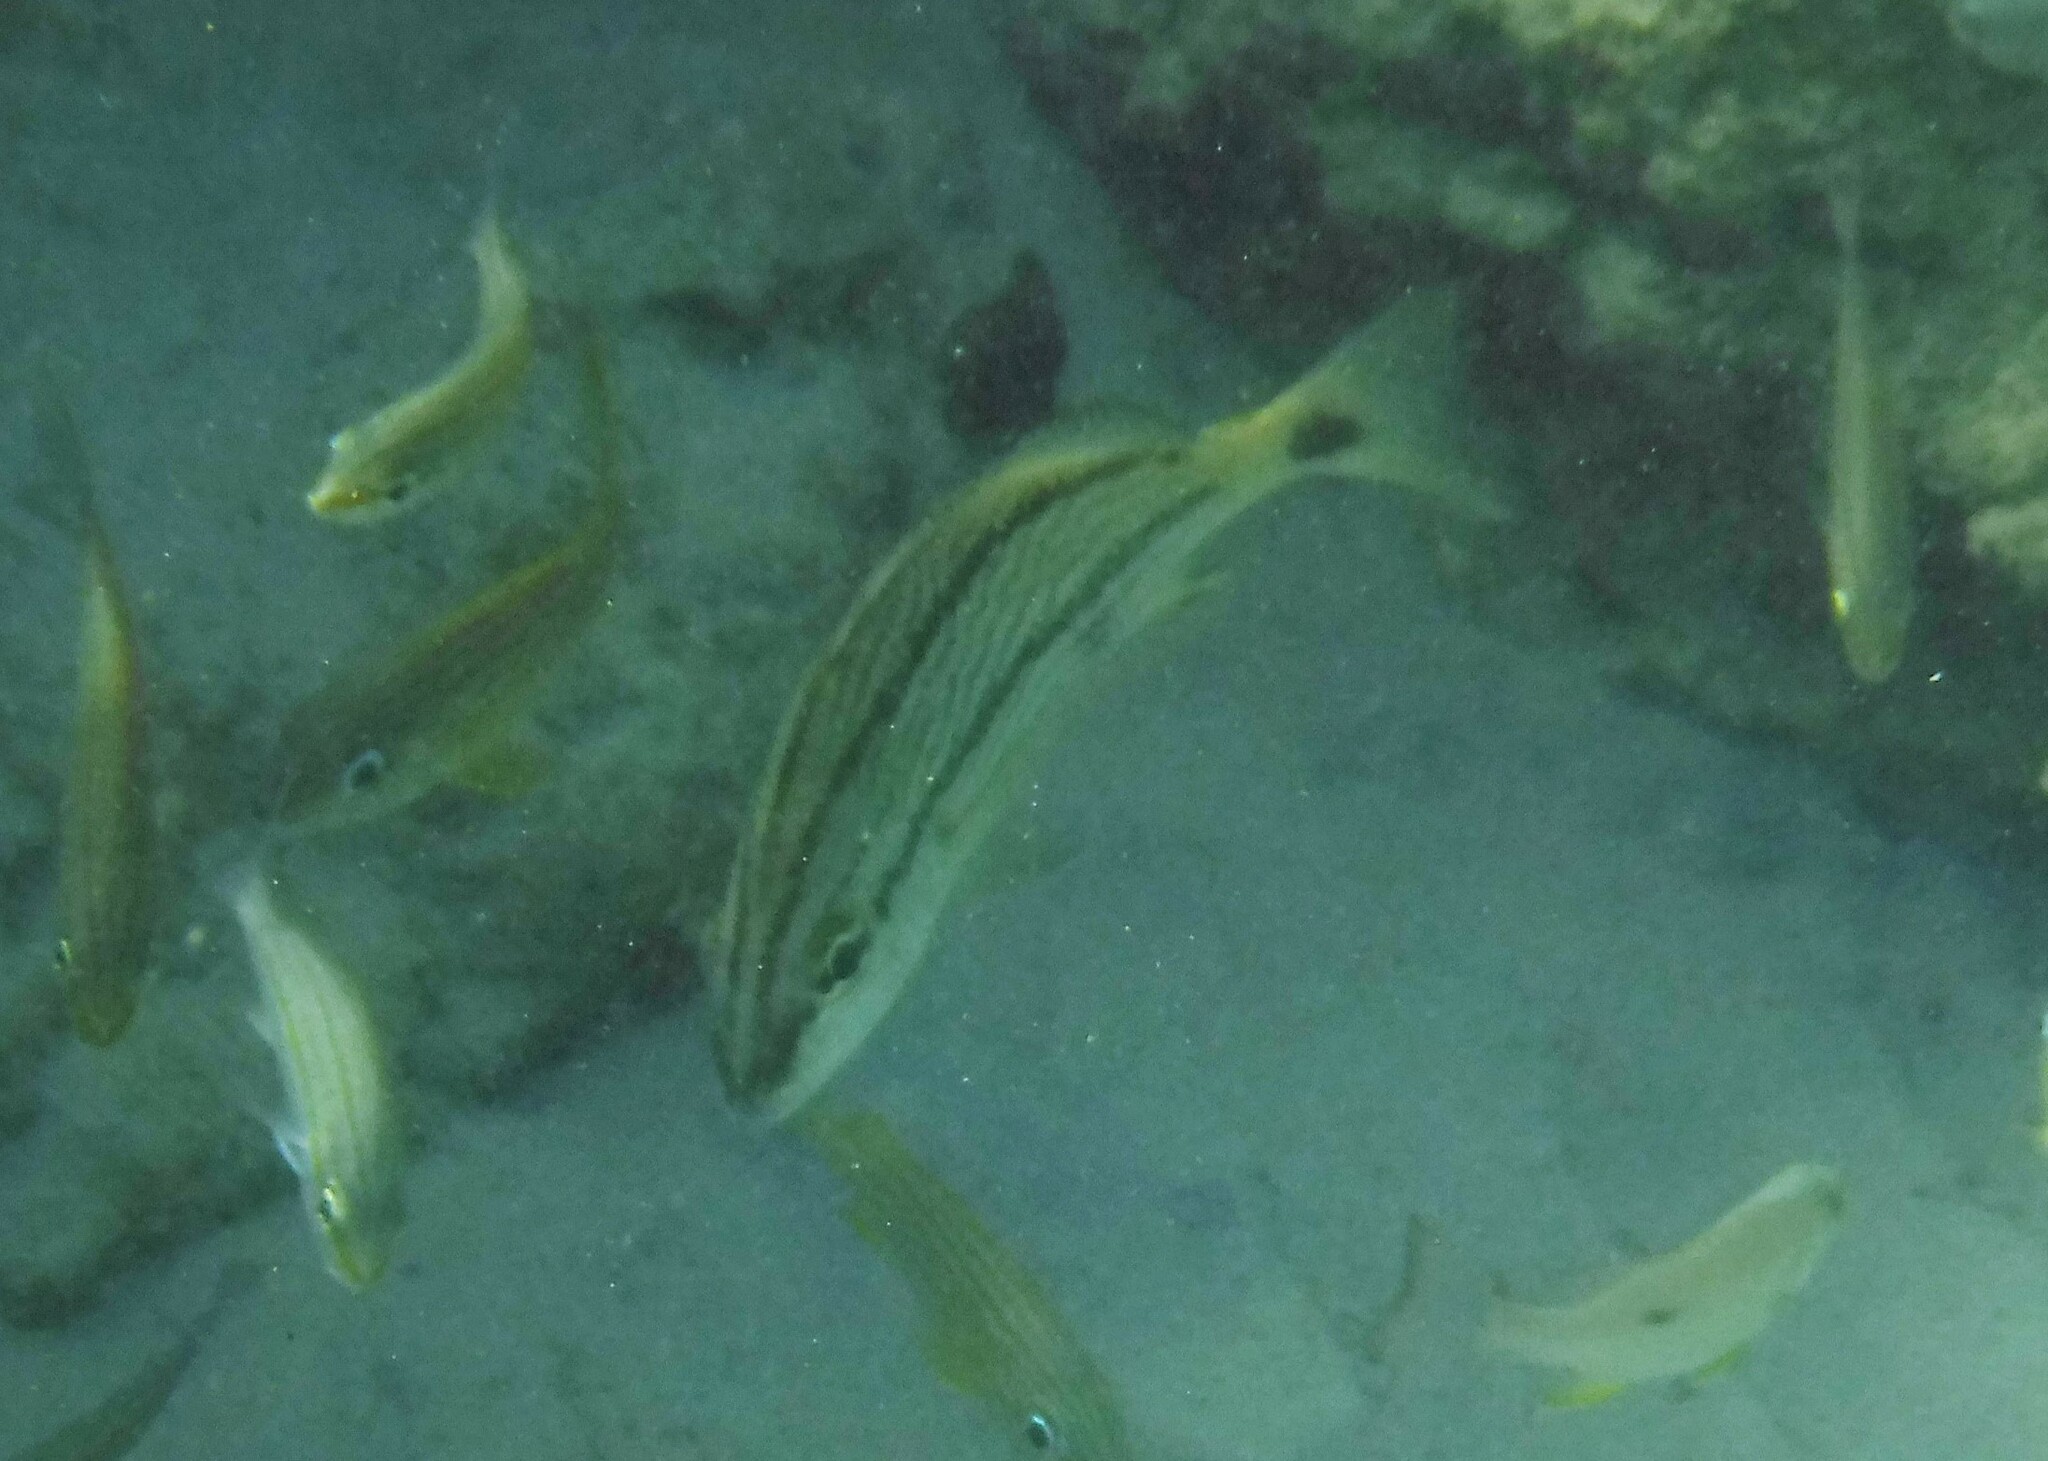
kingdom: Animalia
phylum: Chordata
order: Perciformes
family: Haemulidae
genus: Haemulon
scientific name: Haemulon flavolineatum
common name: French grunt
